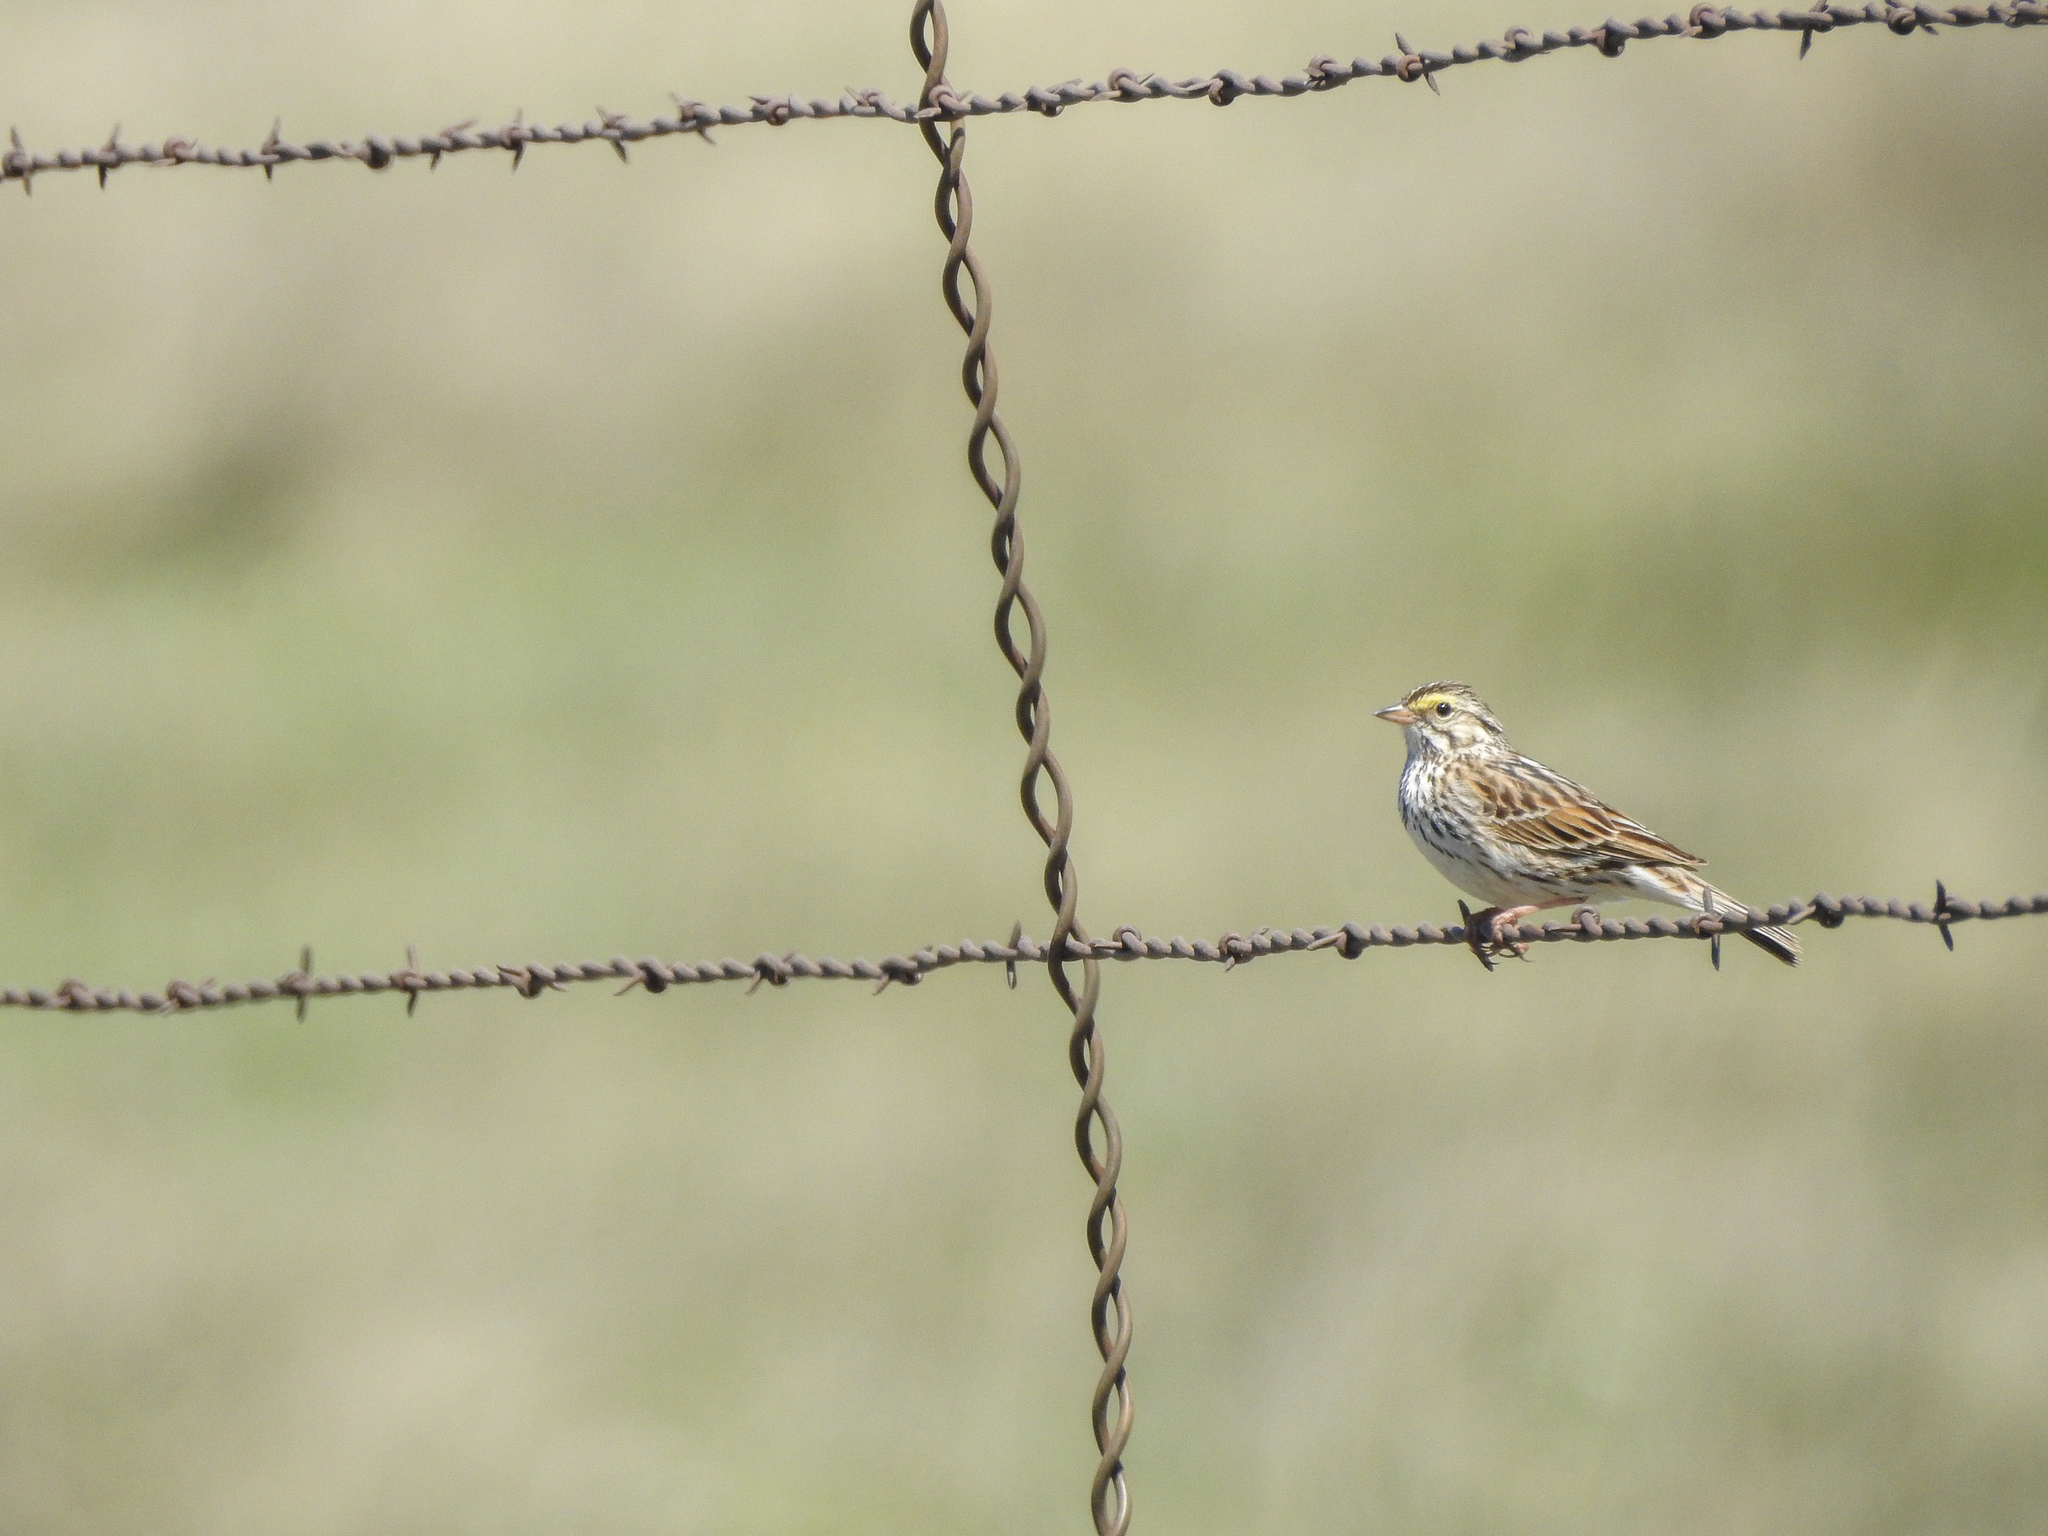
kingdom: Animalia
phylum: Chordata
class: Aves
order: Passeriformes
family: Passerellidae
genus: Passerculus
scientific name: Passerculus sandwichensis
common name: Savannah sparrow
